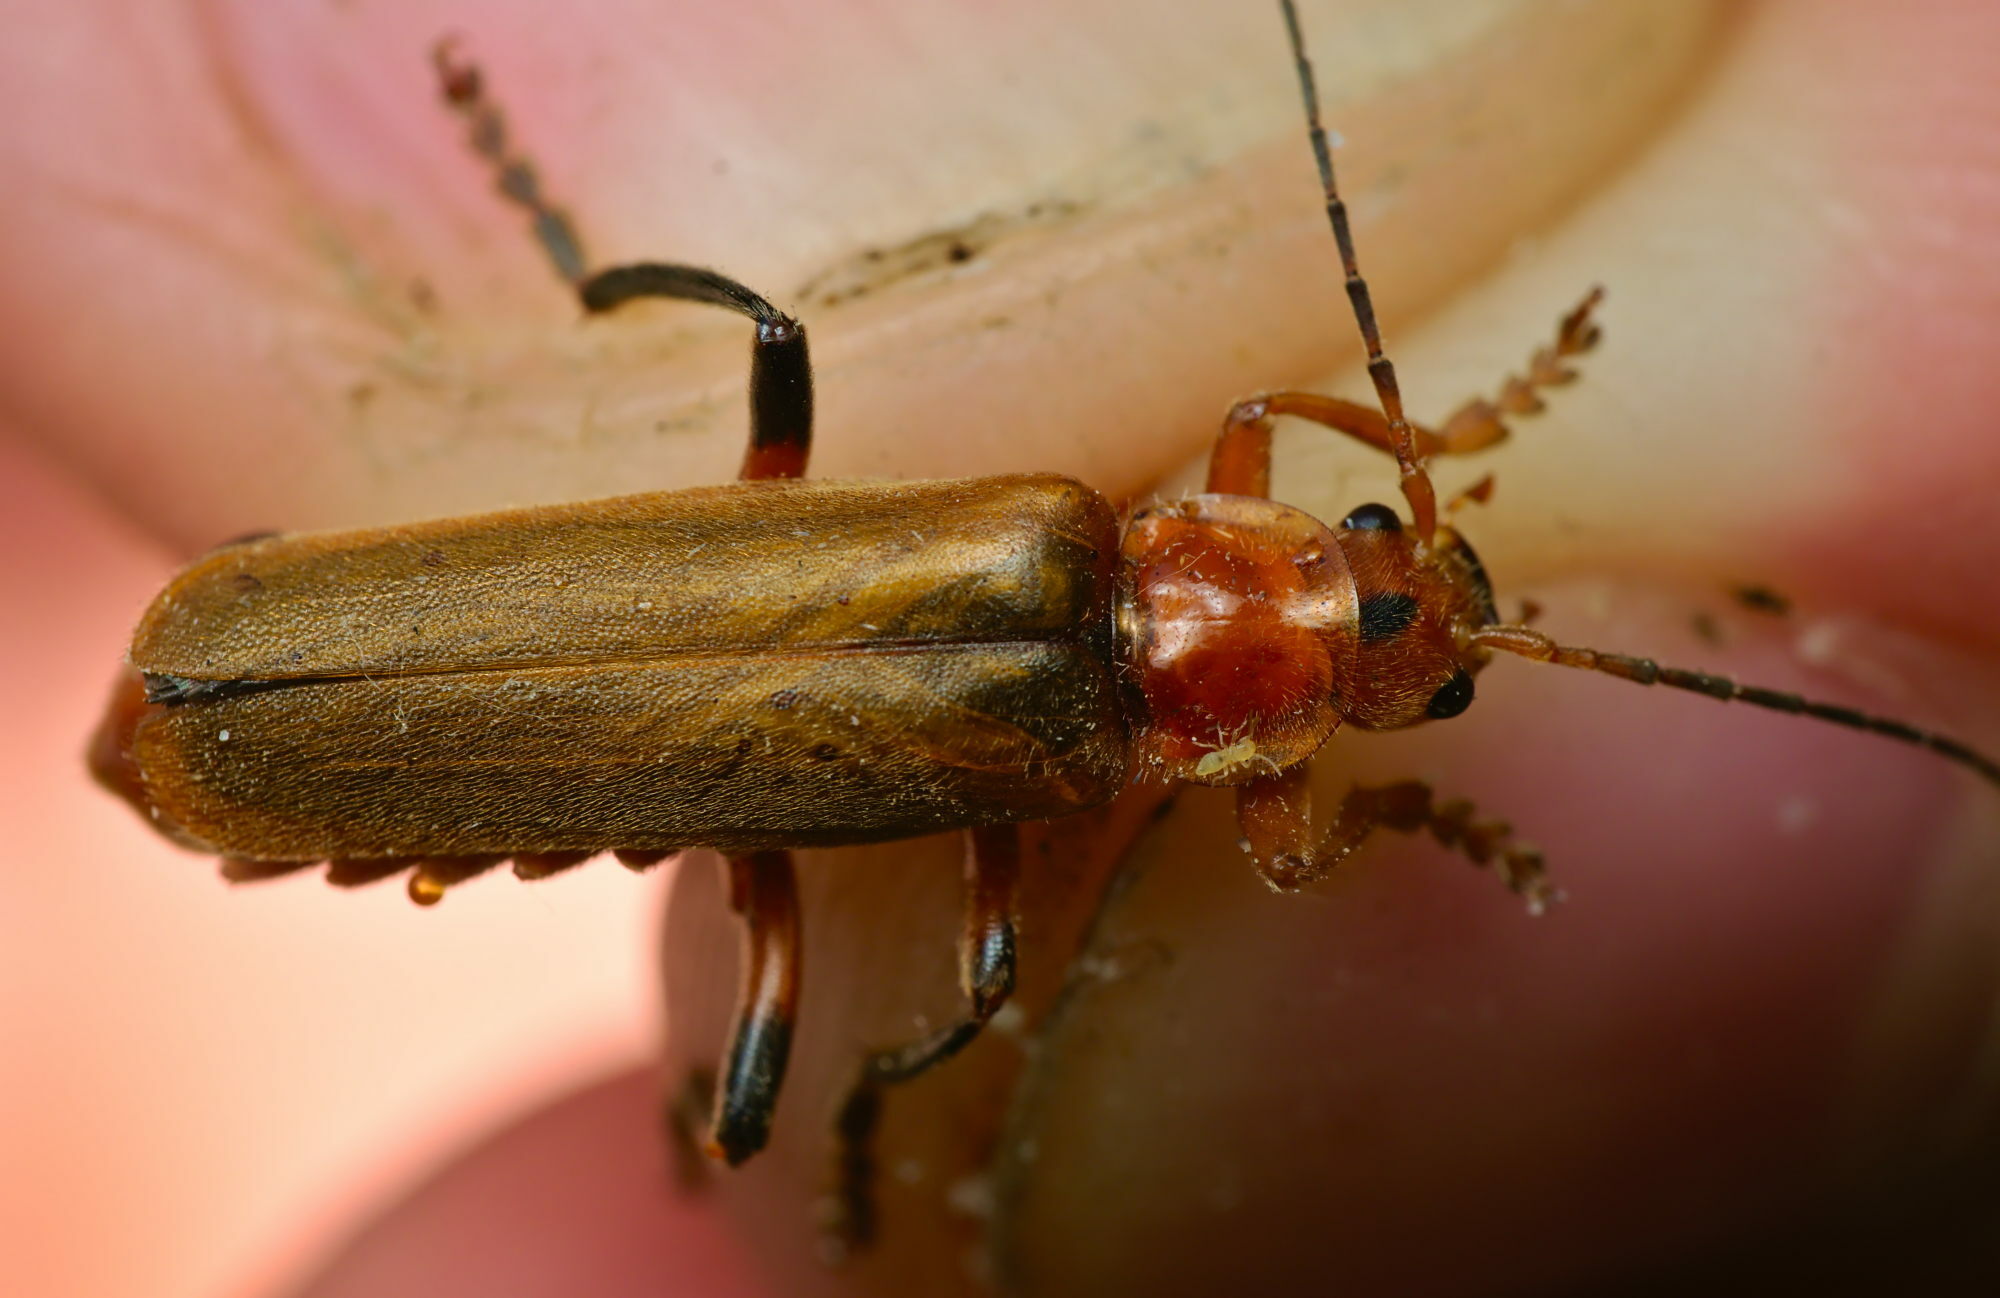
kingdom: Animalia
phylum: Arthropoda
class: Insecta
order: Coleoptera
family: Cantharidae
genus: Cantharis
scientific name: Cantharis livida
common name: Livid soldier beetle
